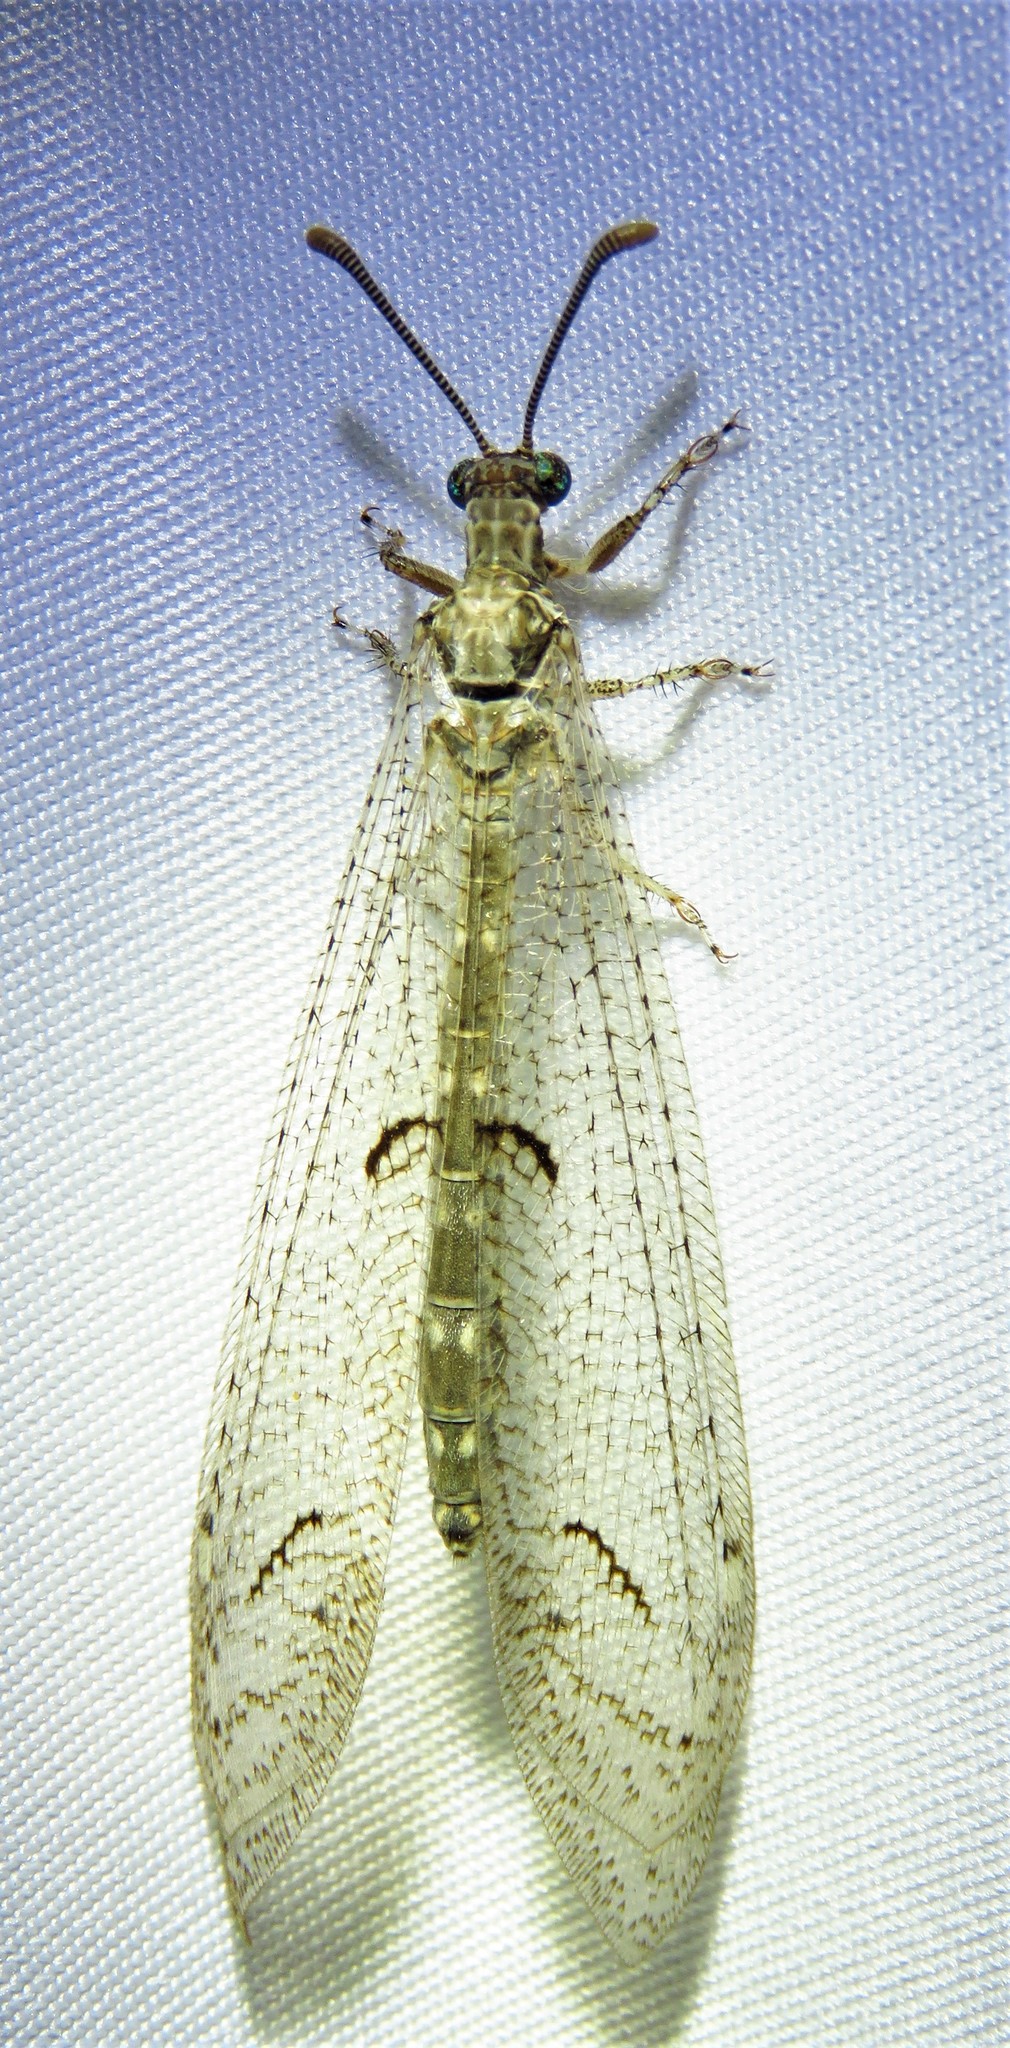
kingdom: Animalia
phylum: Arthropoda
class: Insecta
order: Neuroptera
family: Myrmeleontidae
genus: Euptilon
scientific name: Euptilon ornatum
